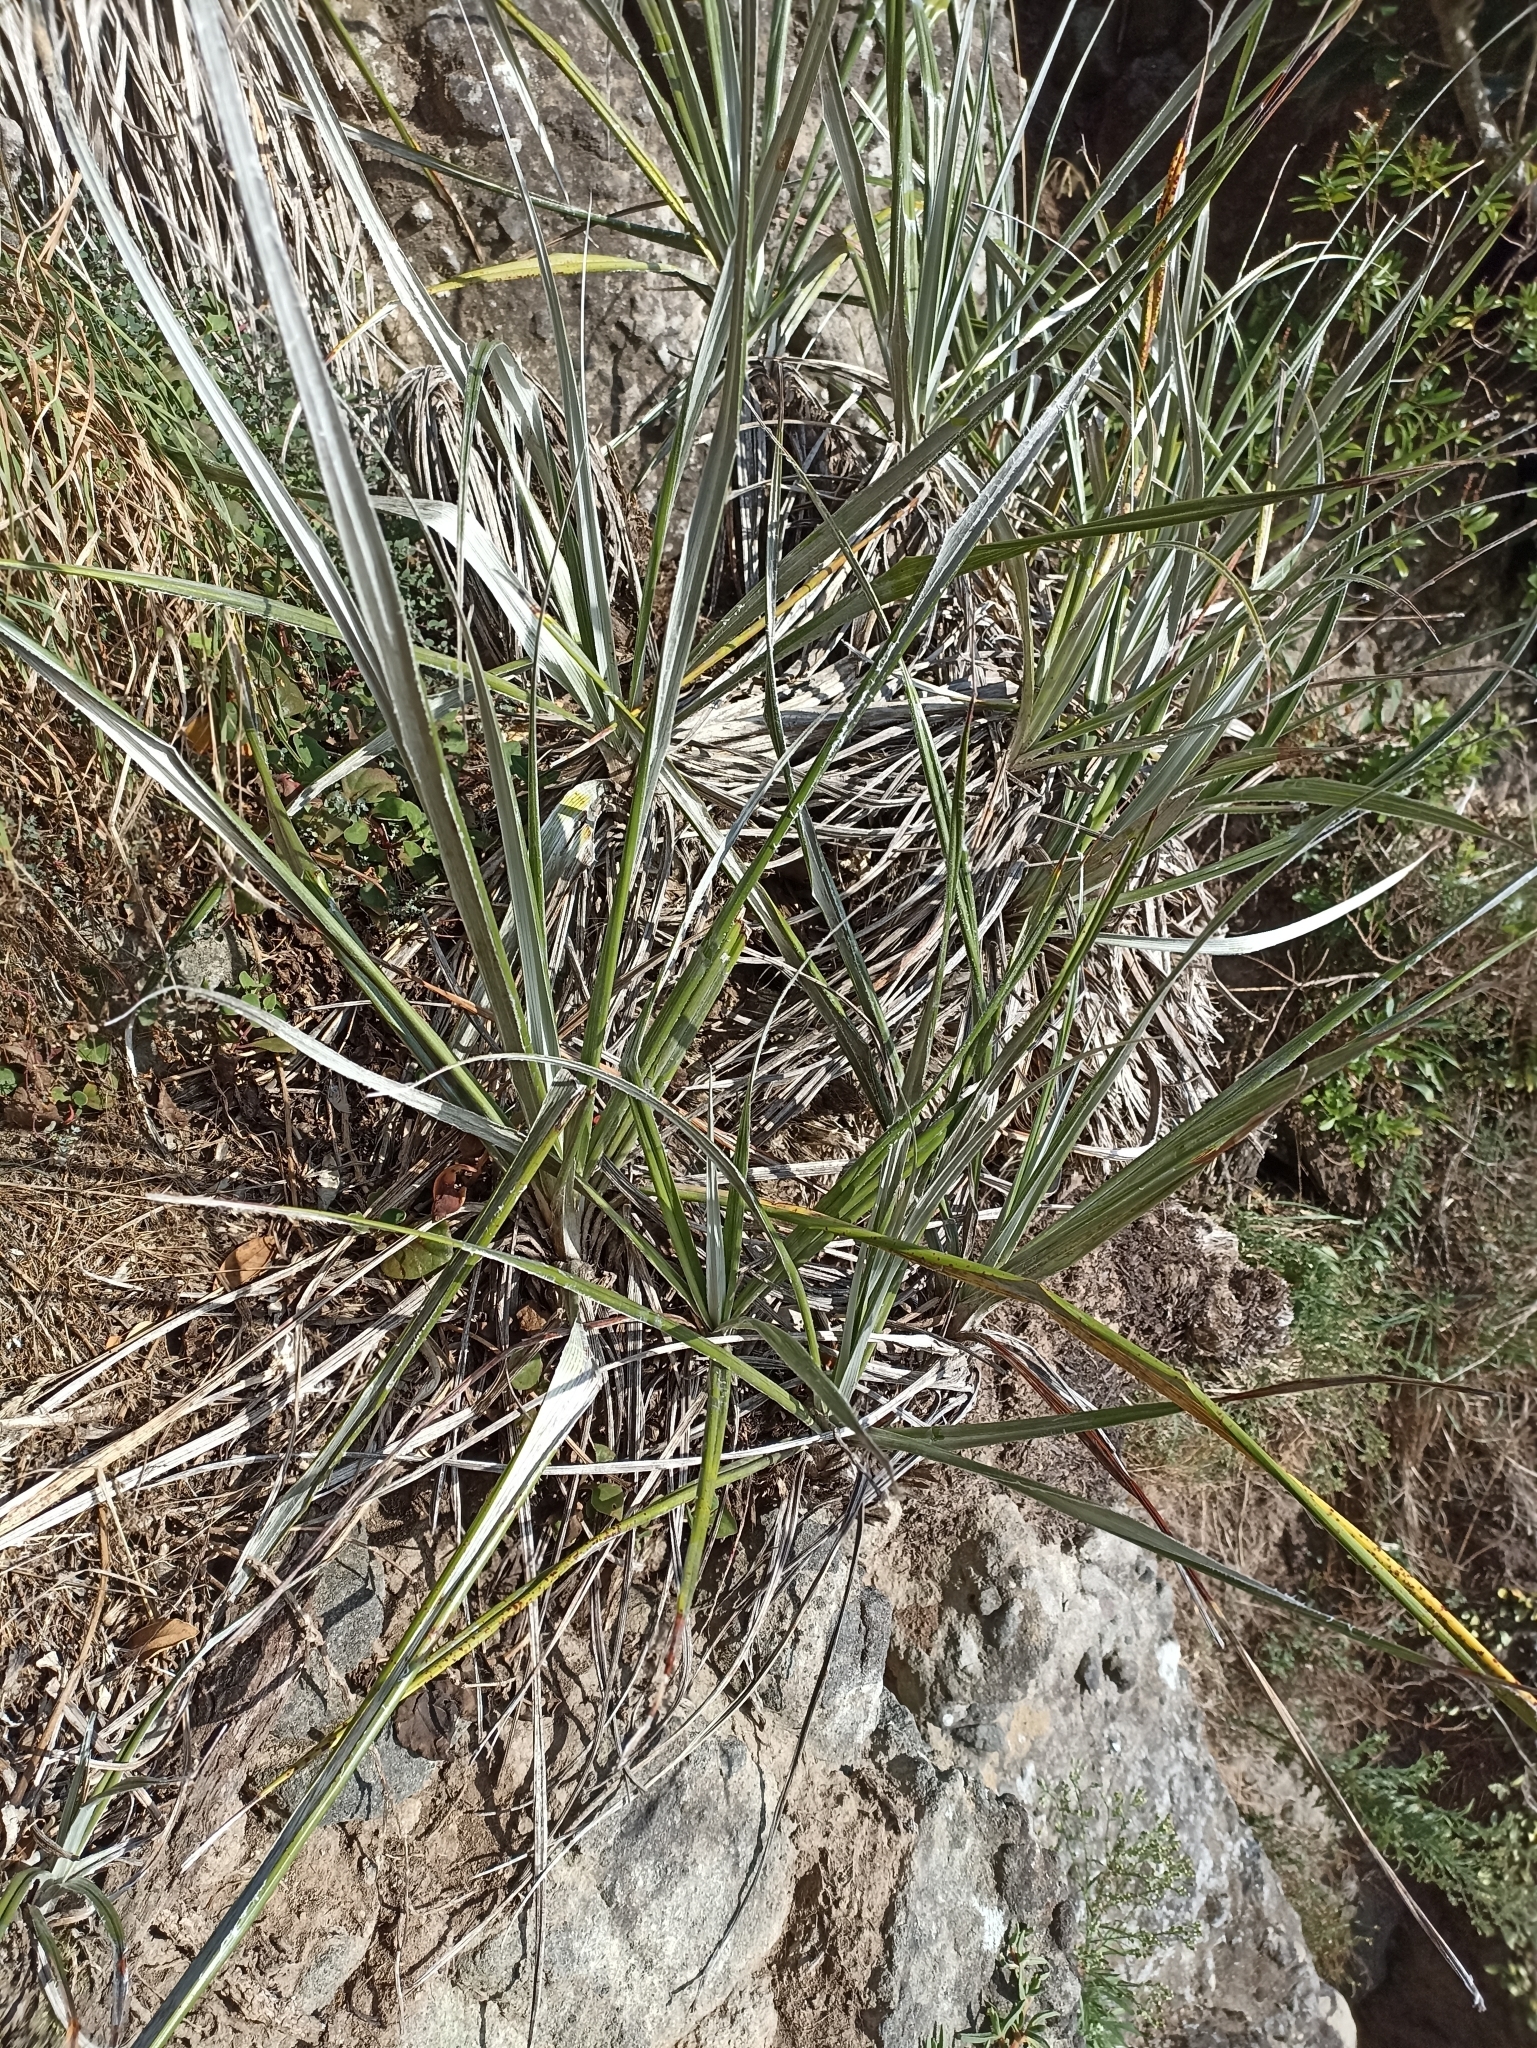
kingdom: Plantae
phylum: Tracheophyta
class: Liliopsida
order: Asparagales
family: Asteliaceae
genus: Astelia
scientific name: Astelia banksii
